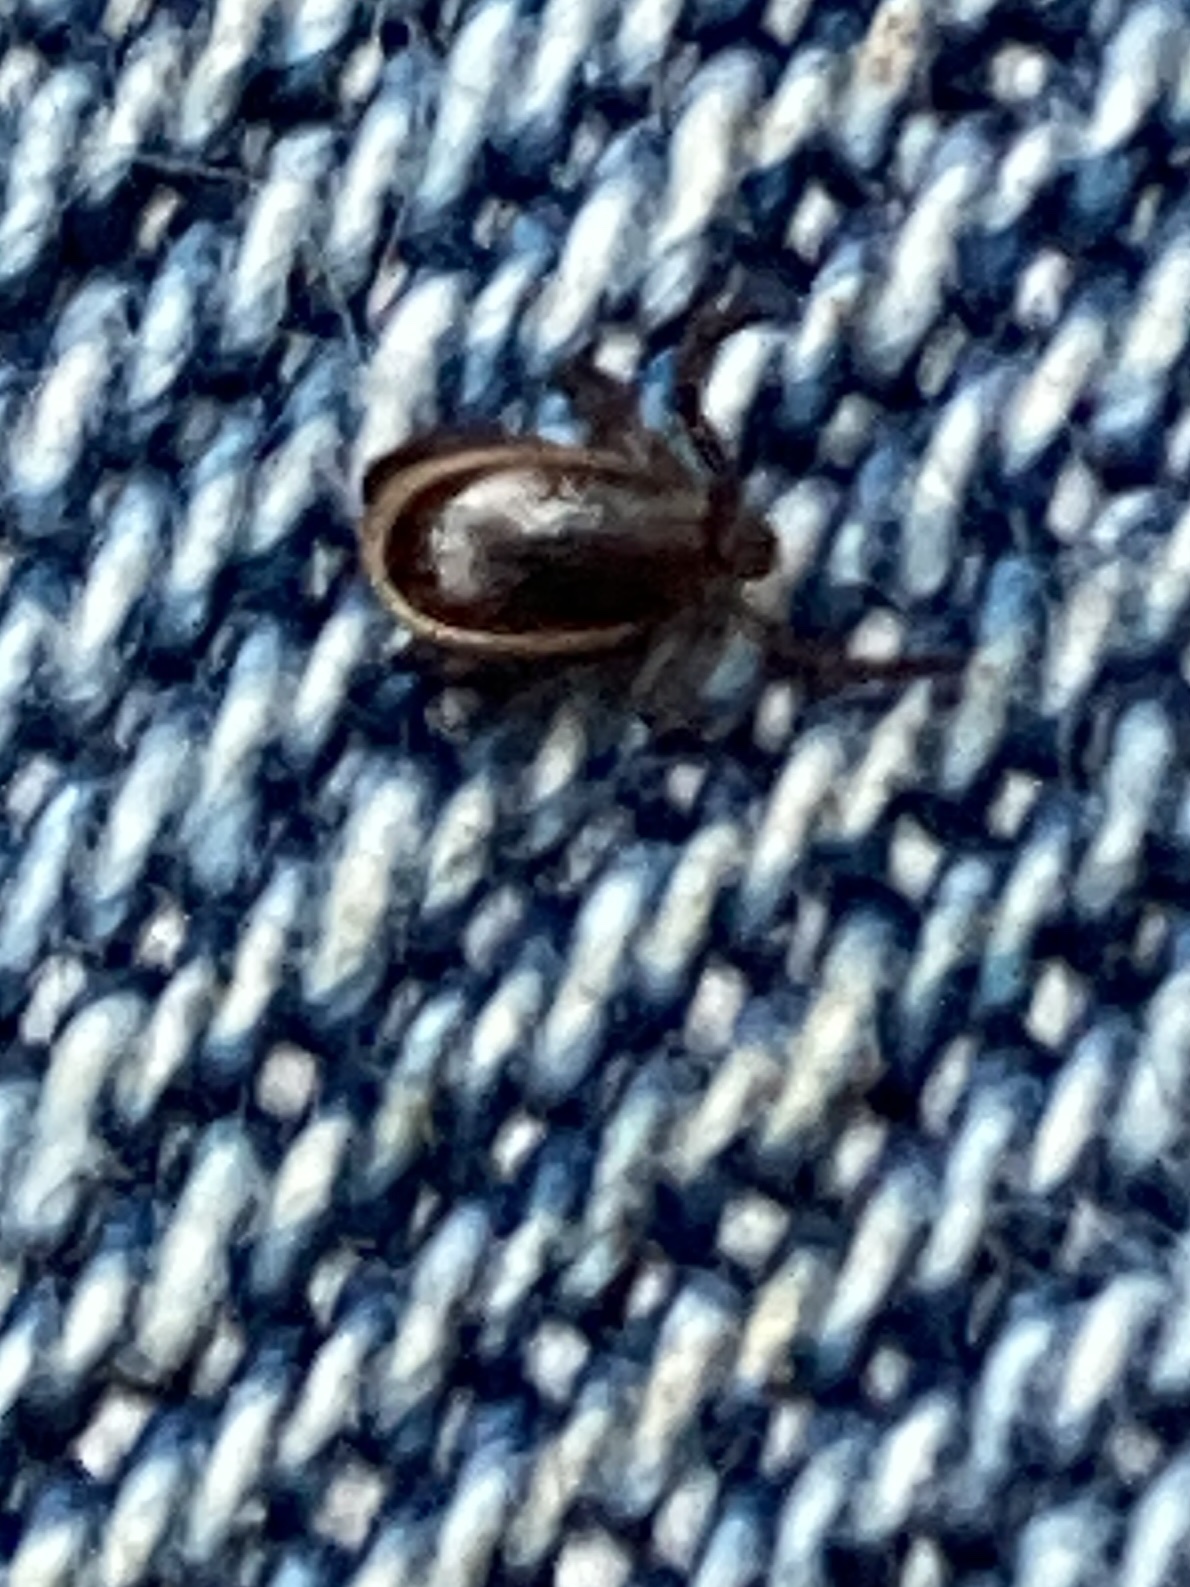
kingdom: Animalia
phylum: Arthropoda
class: Arachnida
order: Ixodida
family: Ixodidae
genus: Ixodes
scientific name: Ixodes scapularis
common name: Black legged tick
